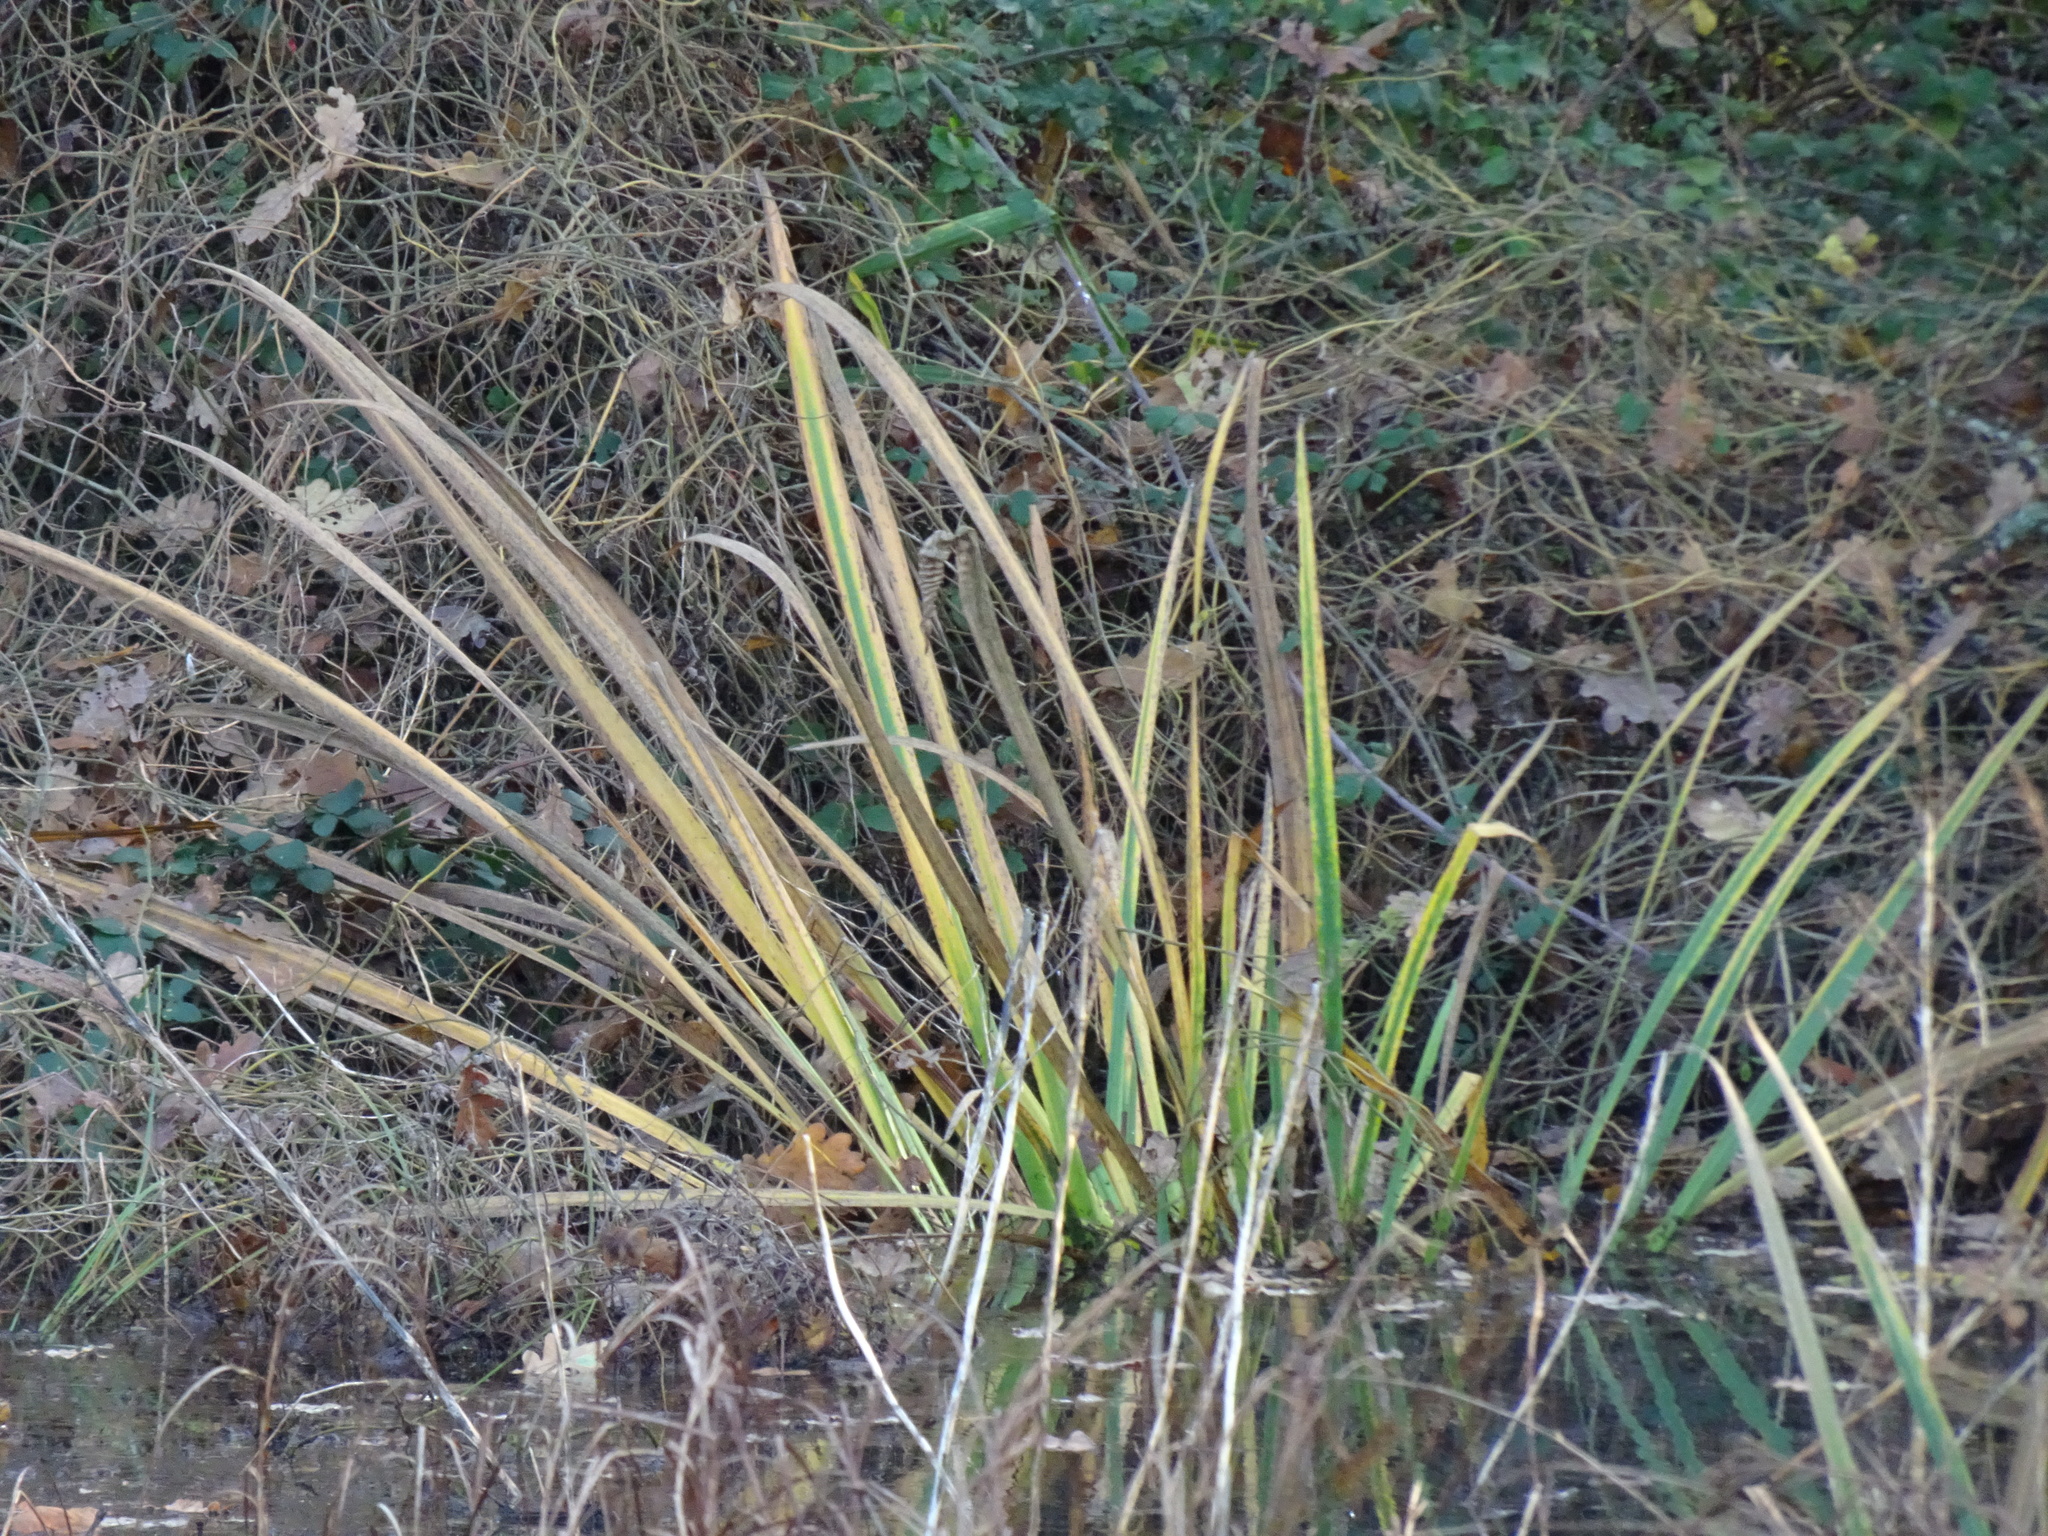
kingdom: Plantae
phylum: Tracheophyta
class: Liliopsida
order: Asparagales
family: Iridaceae
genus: Iris
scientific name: Iris pseudacorus
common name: Yellow flag
